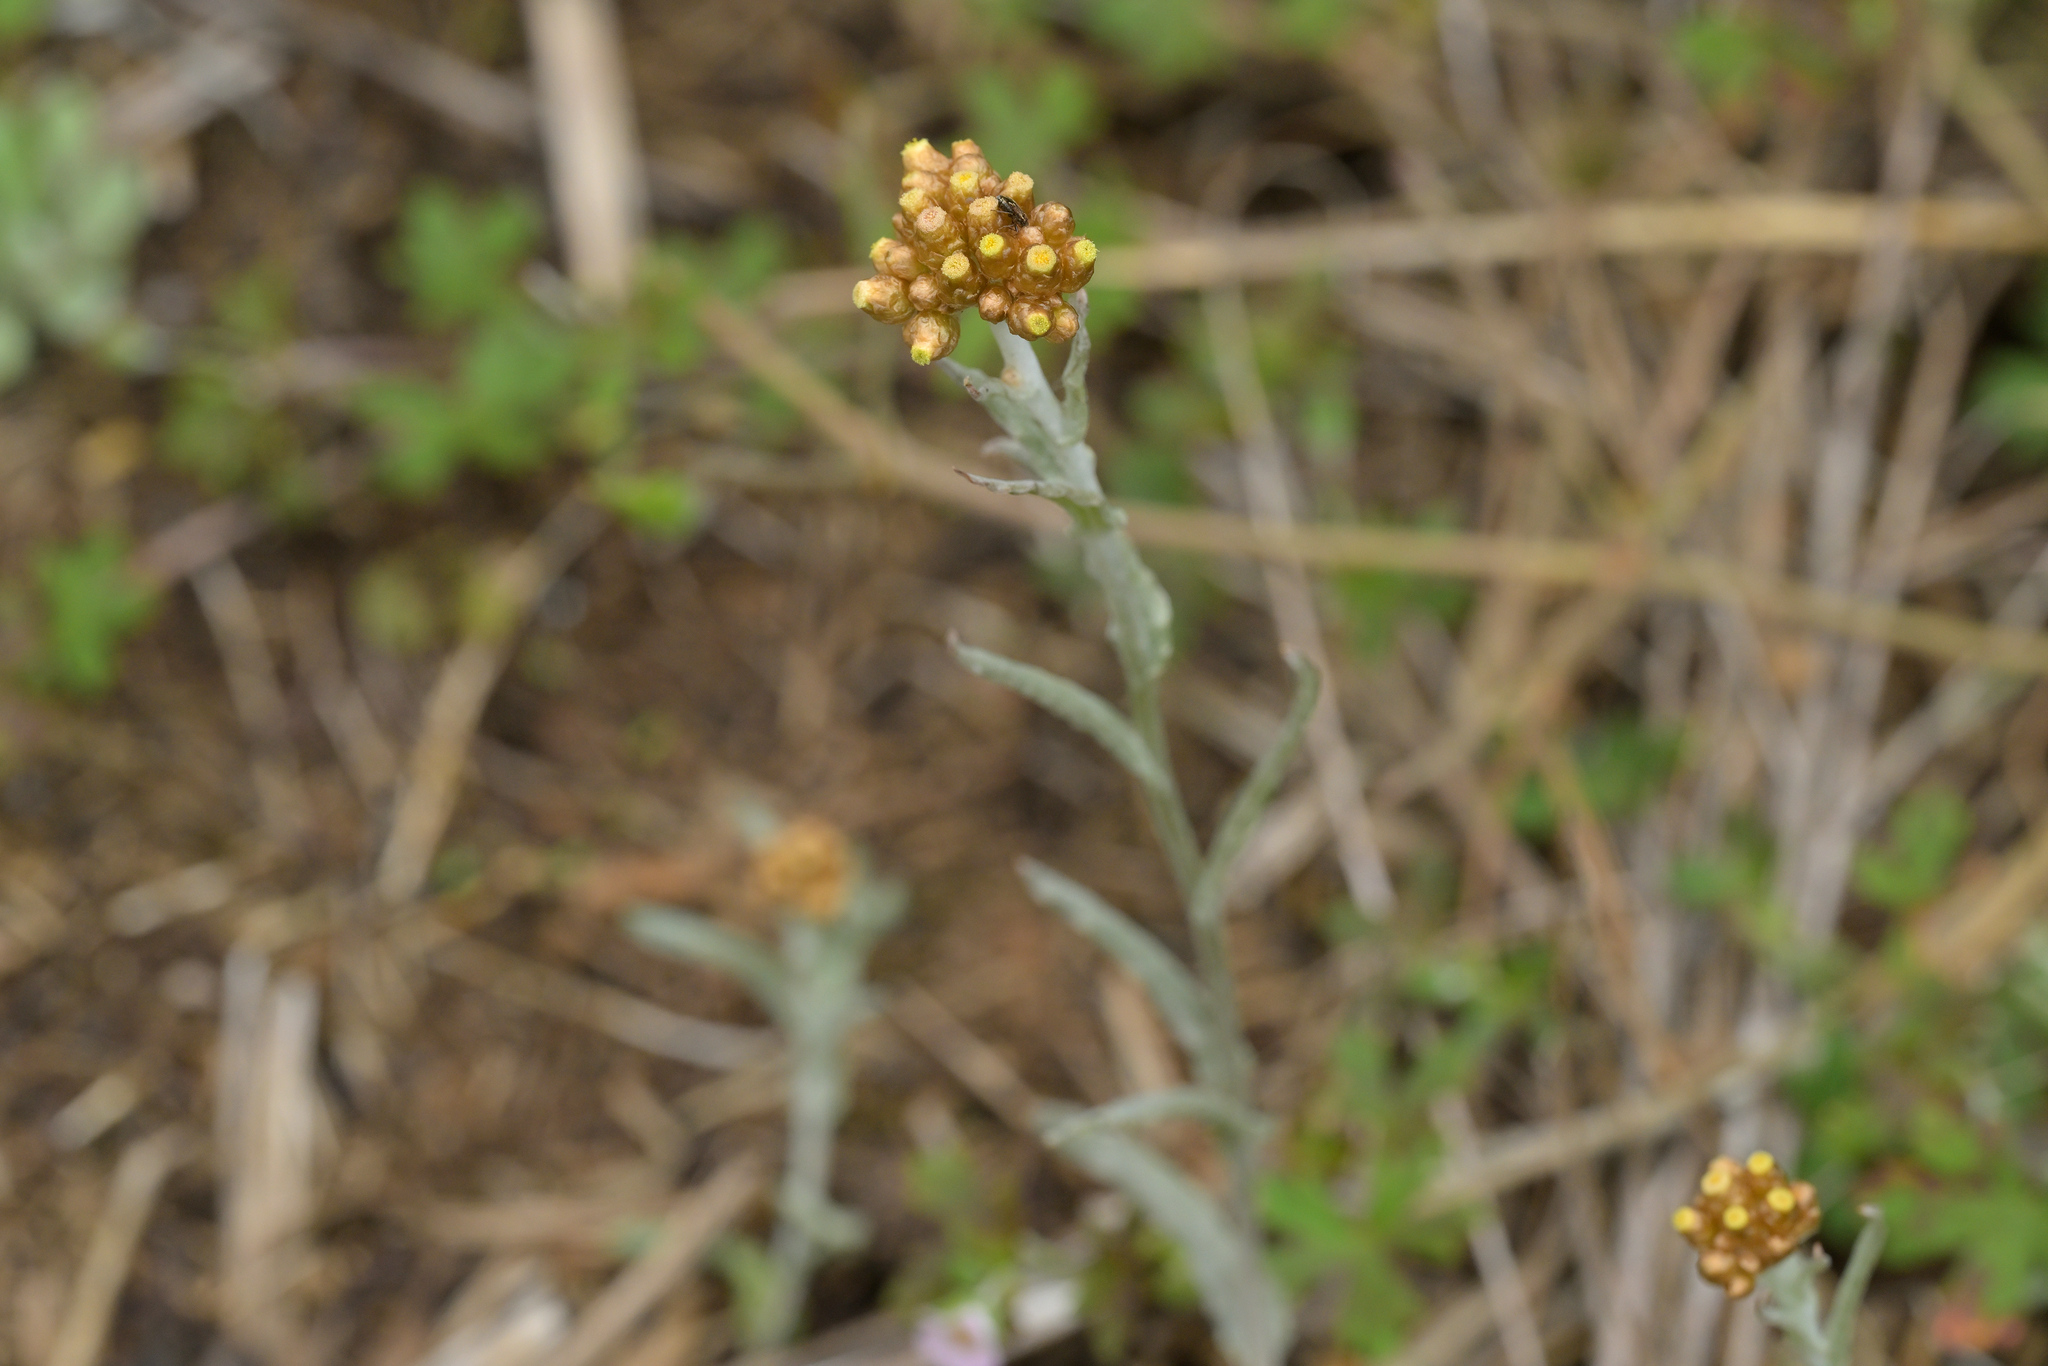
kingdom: Plantae
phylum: Tracheophyta
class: Magnoliopsida
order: Asterales
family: Asteraceae
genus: Pseudognaphalium
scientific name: Pseudognaphalium
